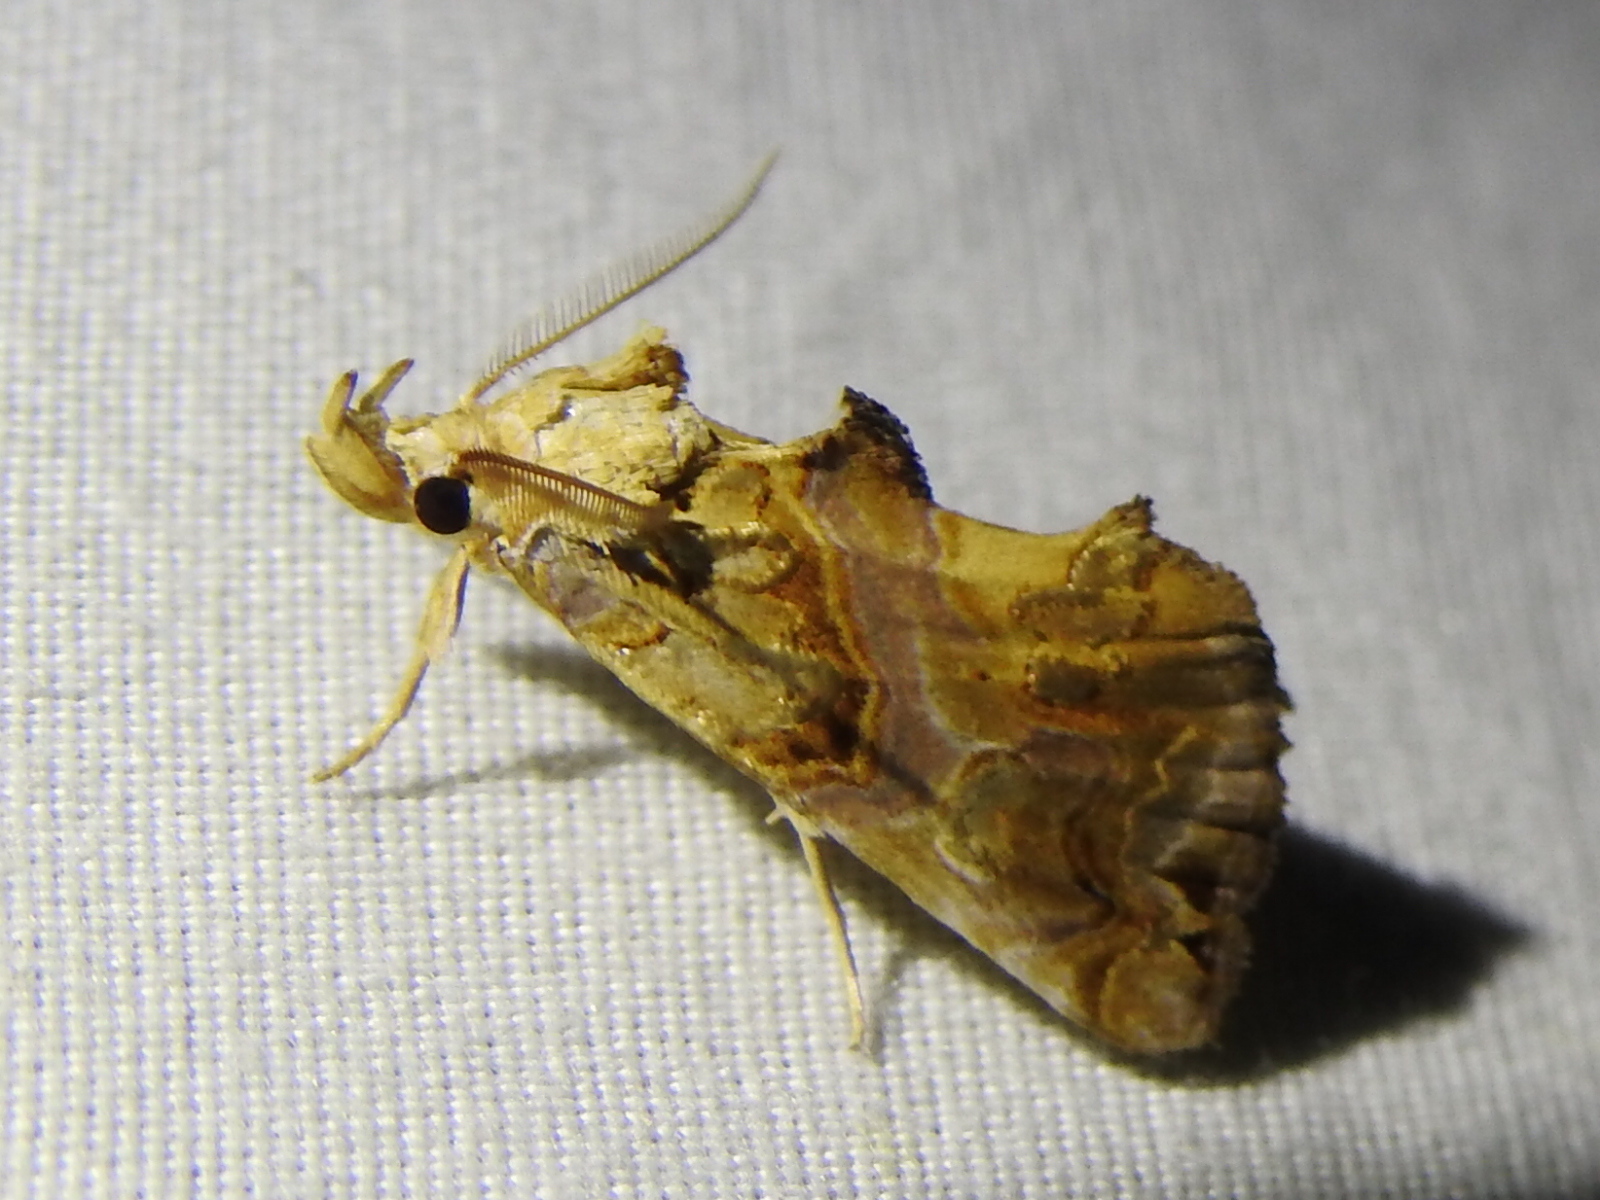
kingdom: Animalia
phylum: Arthropoda
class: Insecta
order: Lepidoptera
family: Erebidae
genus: Plusiodonta
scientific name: Plusiodonta compressipalpis
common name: Moonseed moth
